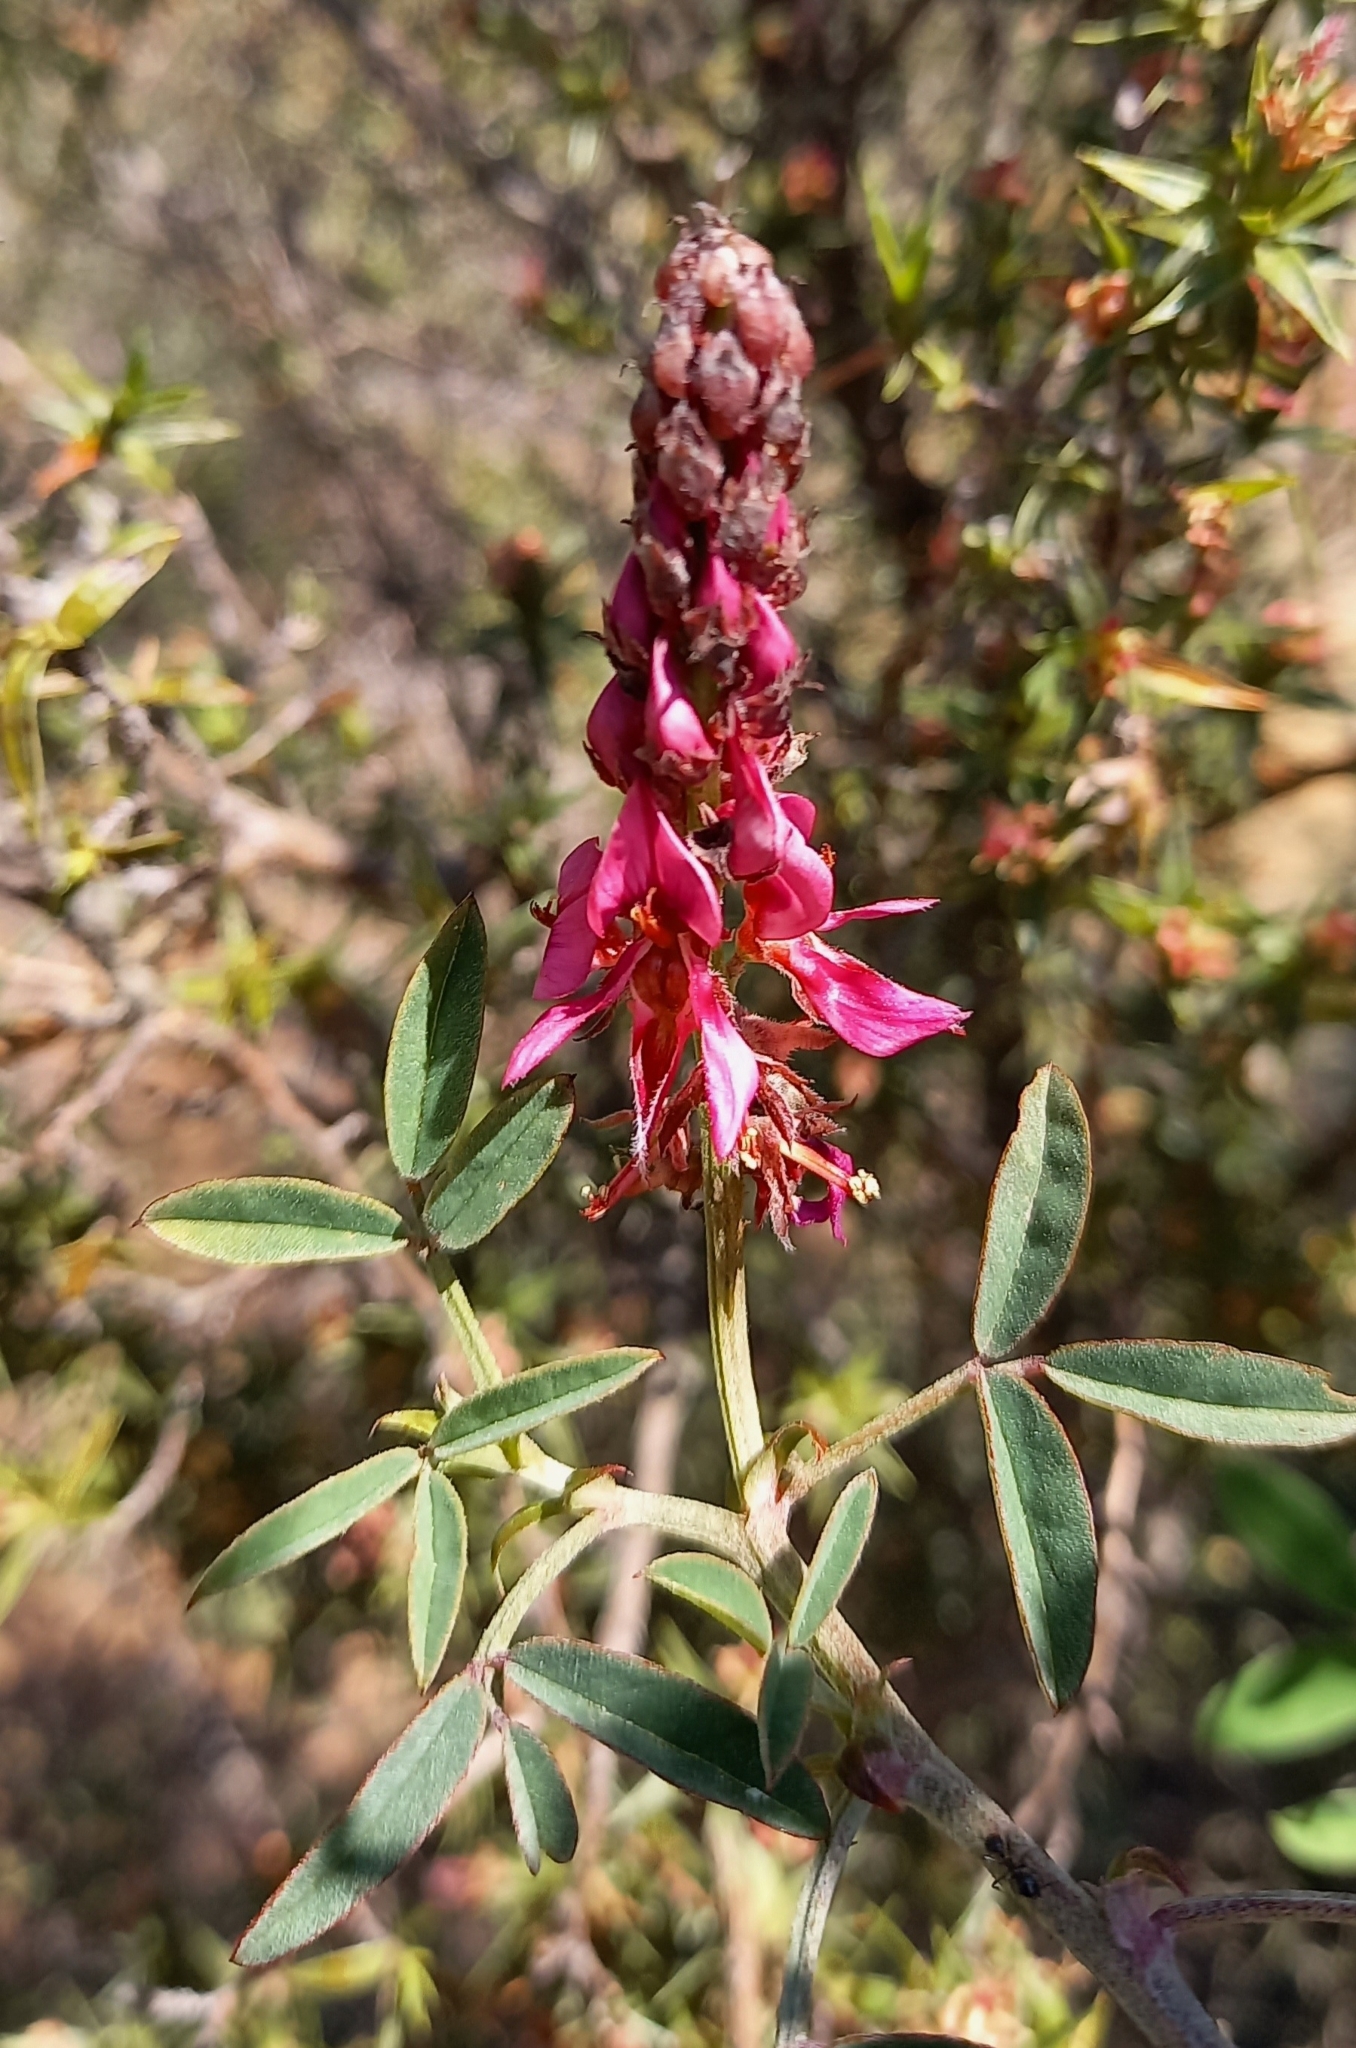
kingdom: Plantae
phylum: Tracheophyta
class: Magnoliopsida
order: Fabales
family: Fabaceae
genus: Indigofera
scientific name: Indigofera amoena
